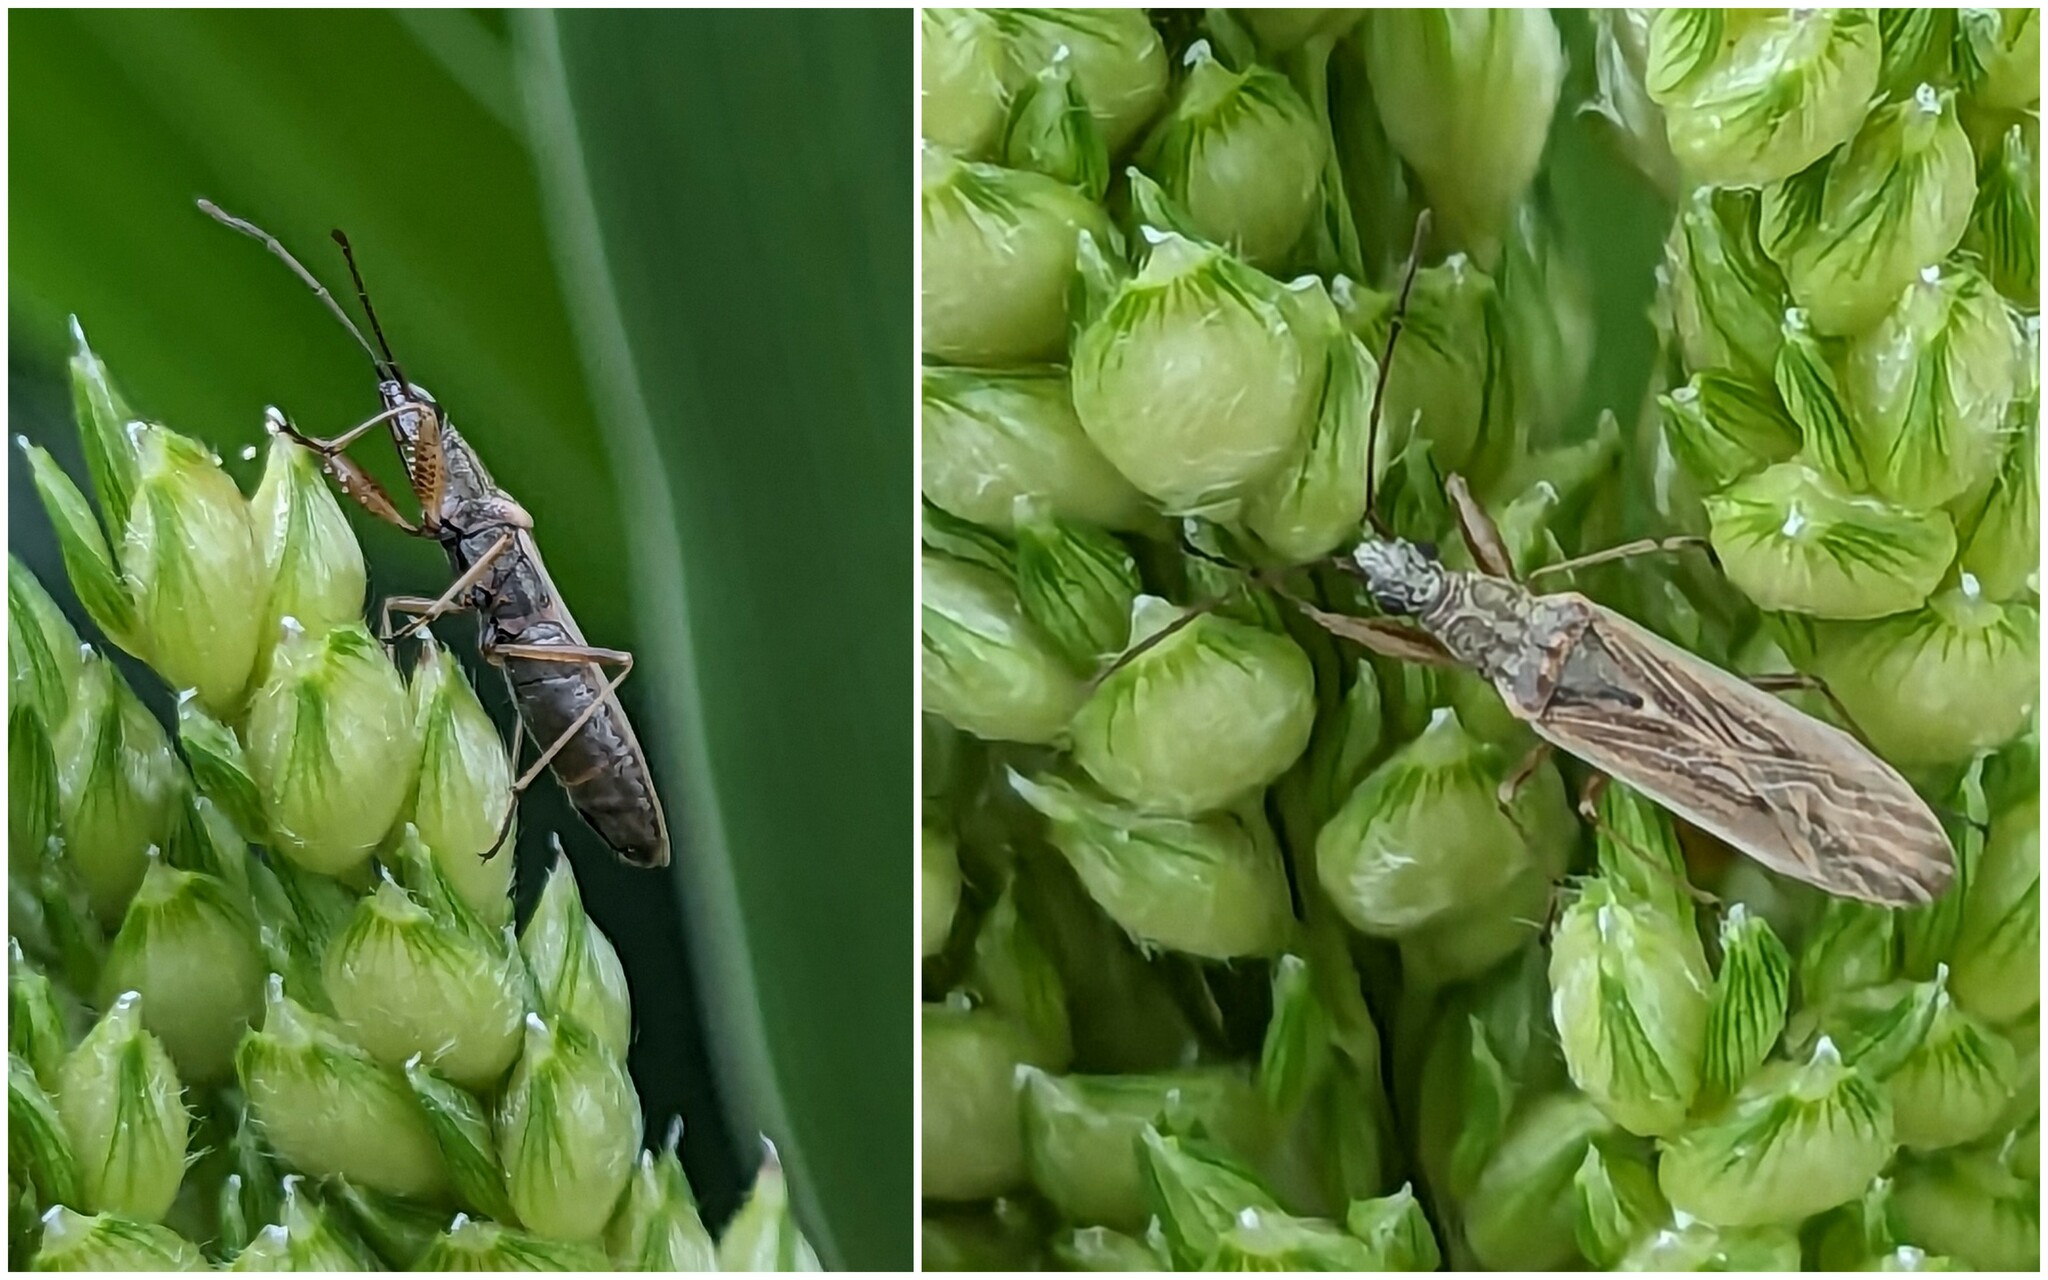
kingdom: Animalia
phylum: Arthropoda
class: Insecta
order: Hemiptera
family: Rhyparochromidae
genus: Paromius
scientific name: Paromius gracilis
